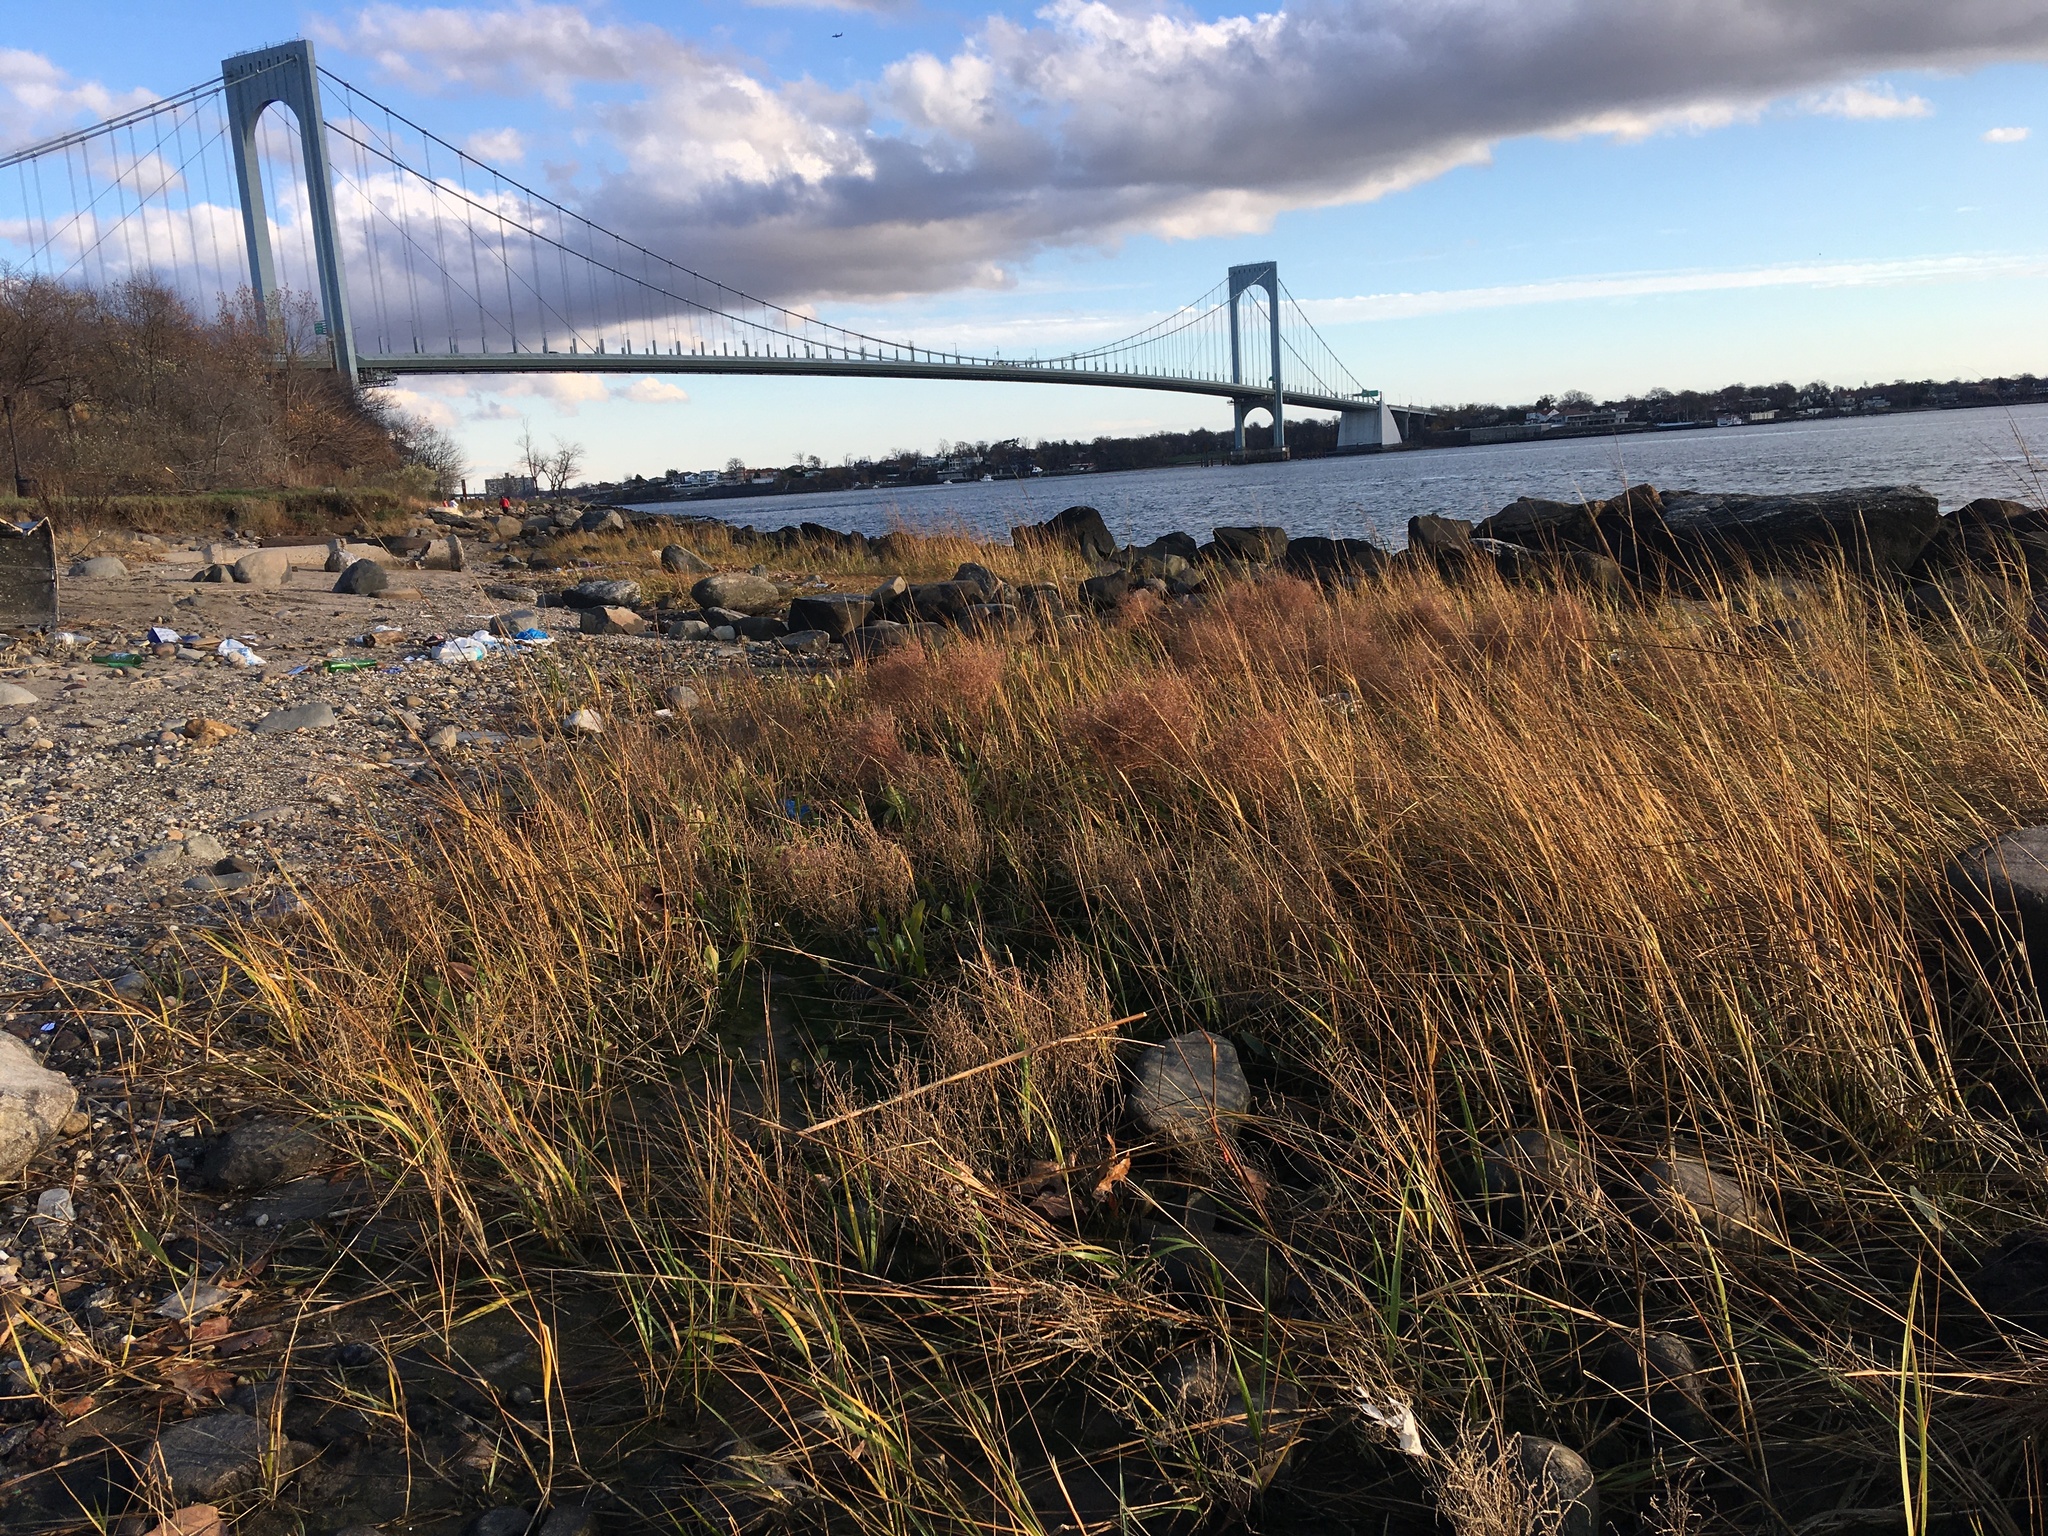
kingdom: Plantae
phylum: Tracheophyta
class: Liliopsida
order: Poales
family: Poaceae
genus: Sporobolus
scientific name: Sporobolus alterniflorus
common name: Atlantic cordgrass
